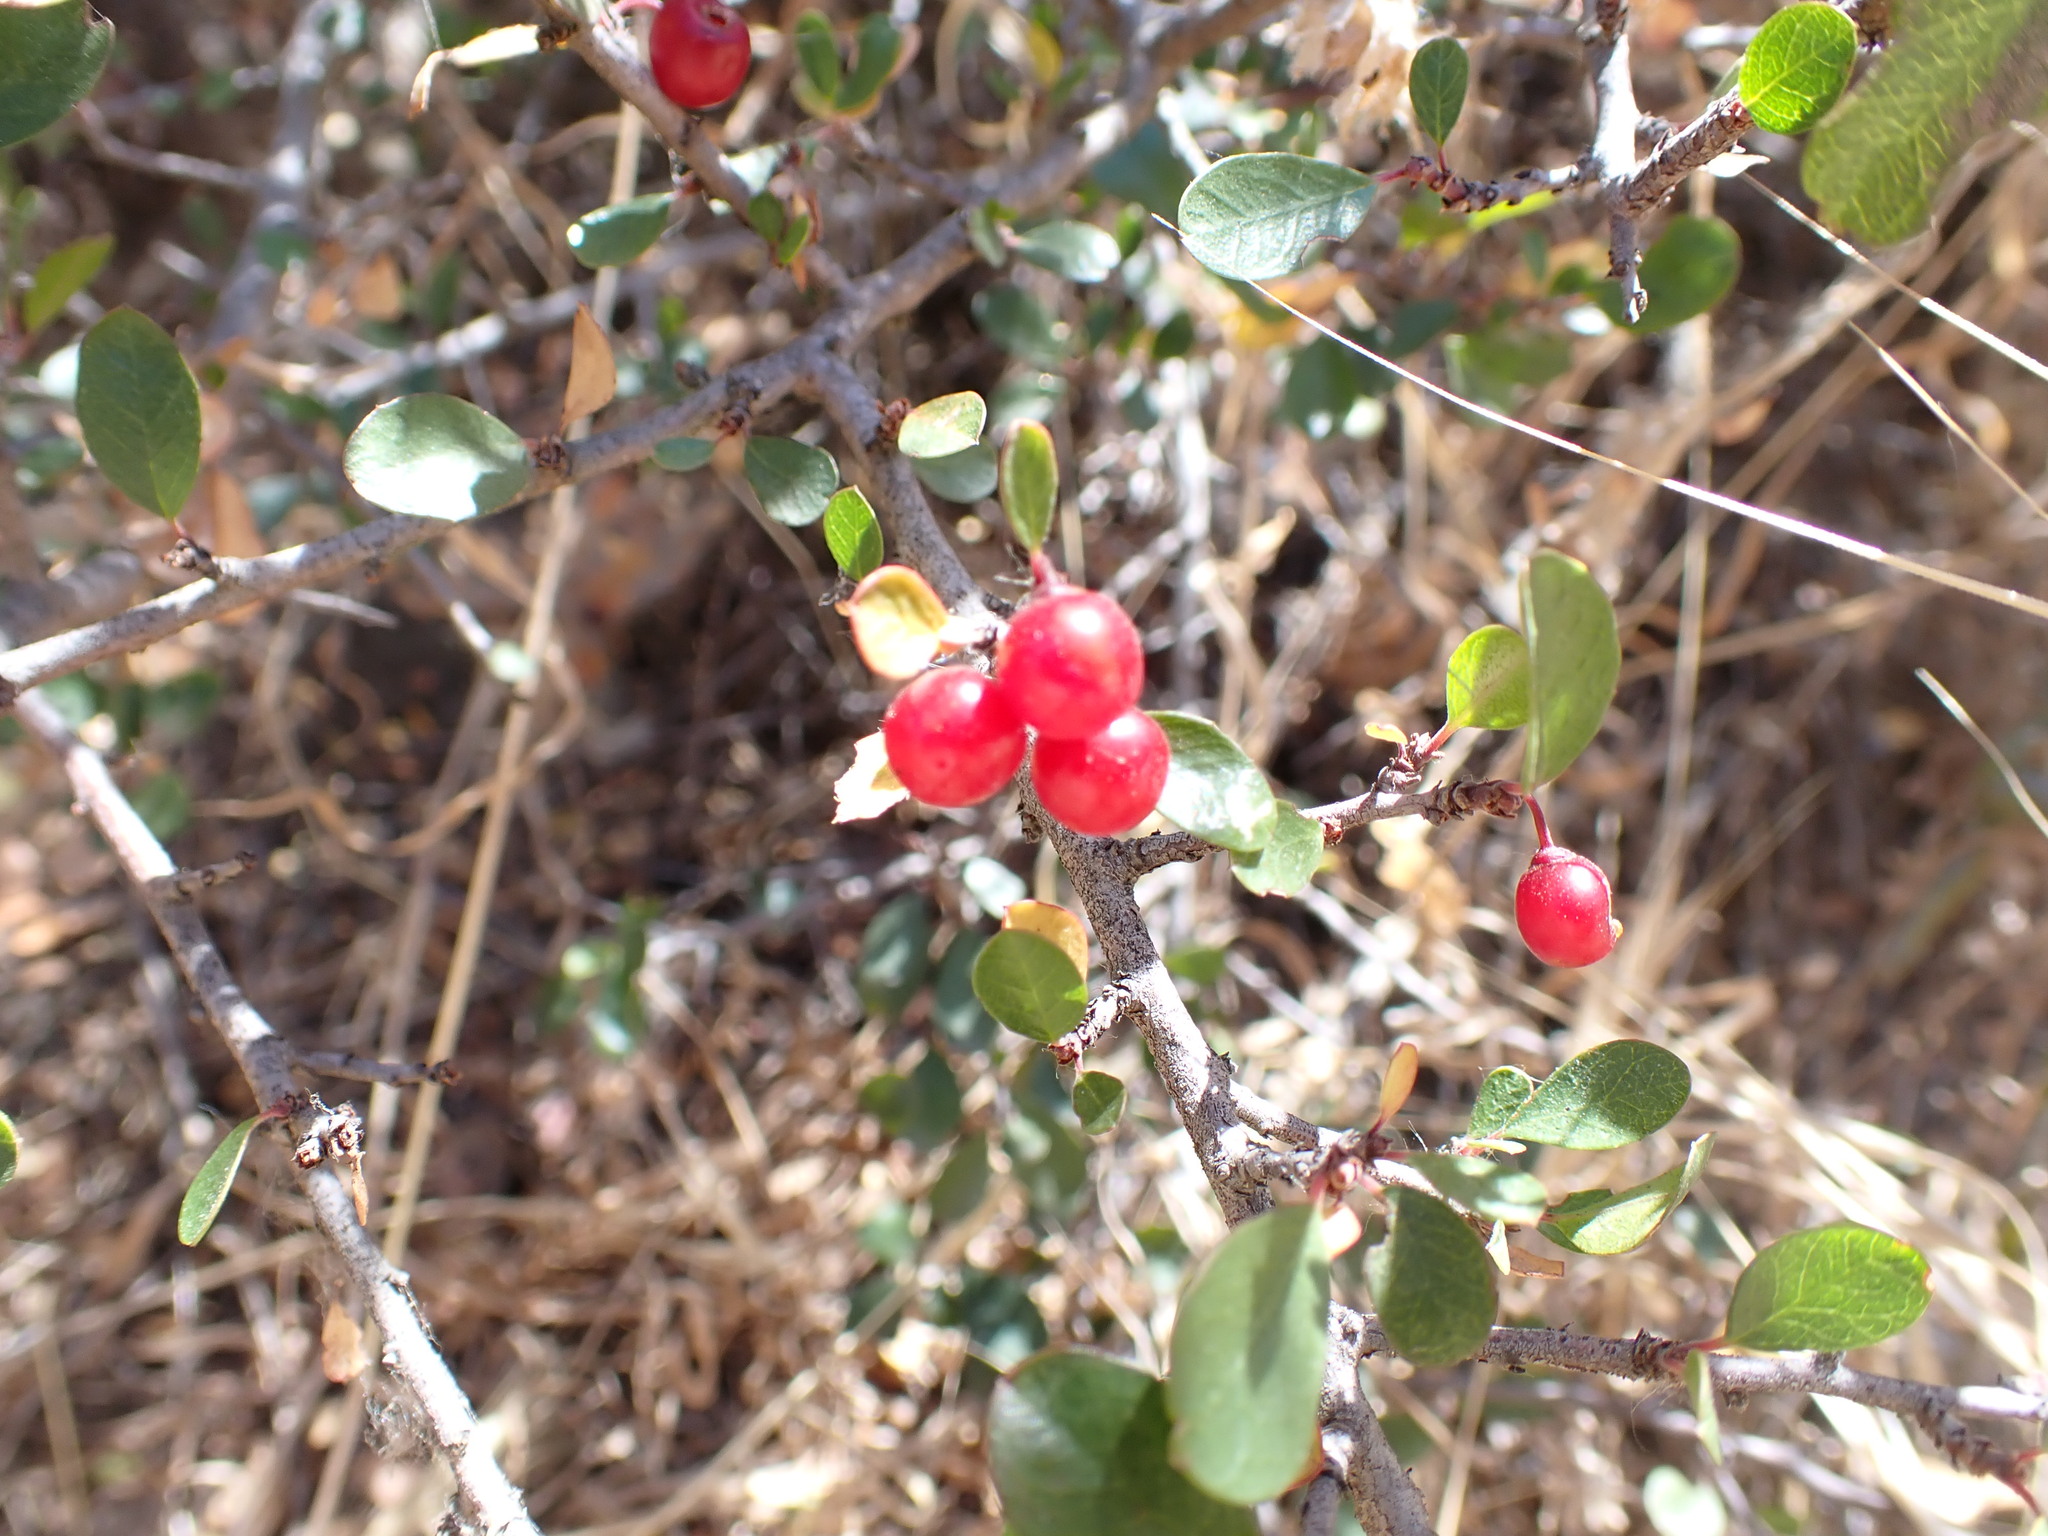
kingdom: Plantae
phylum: Tracheophyta
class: Magnoliopsida
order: Rosales
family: Rhamnaceae
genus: Endotropis
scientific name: Endotropis crocea
